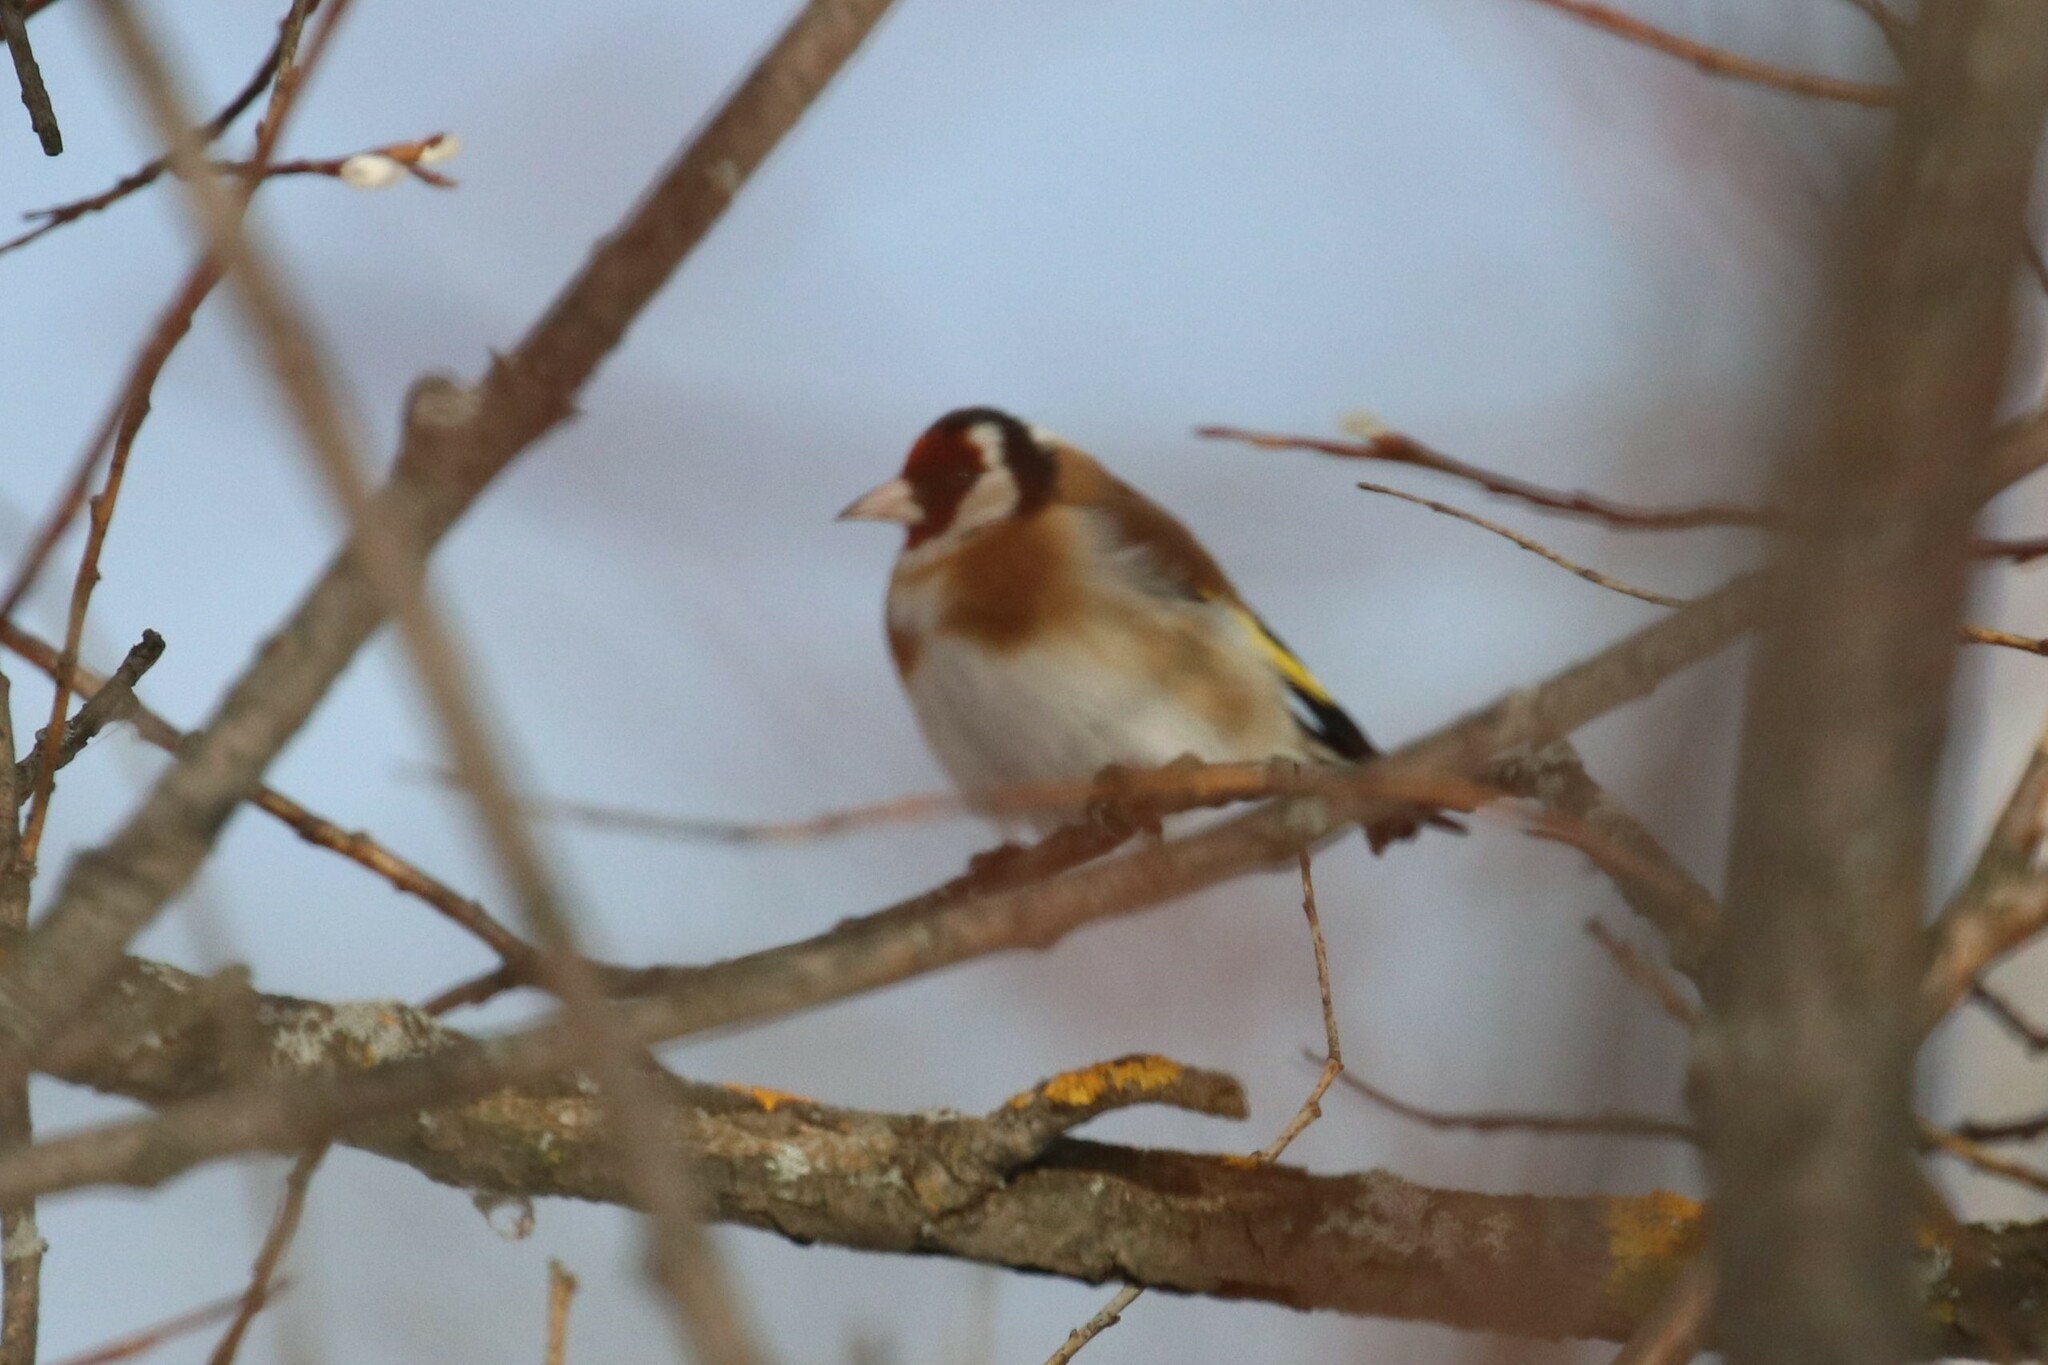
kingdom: Animalia
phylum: Chordata
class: Aves
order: Passeriformes
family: Fringillidae
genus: Carduelis
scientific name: Carduelis carduelis
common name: European goldfinch
